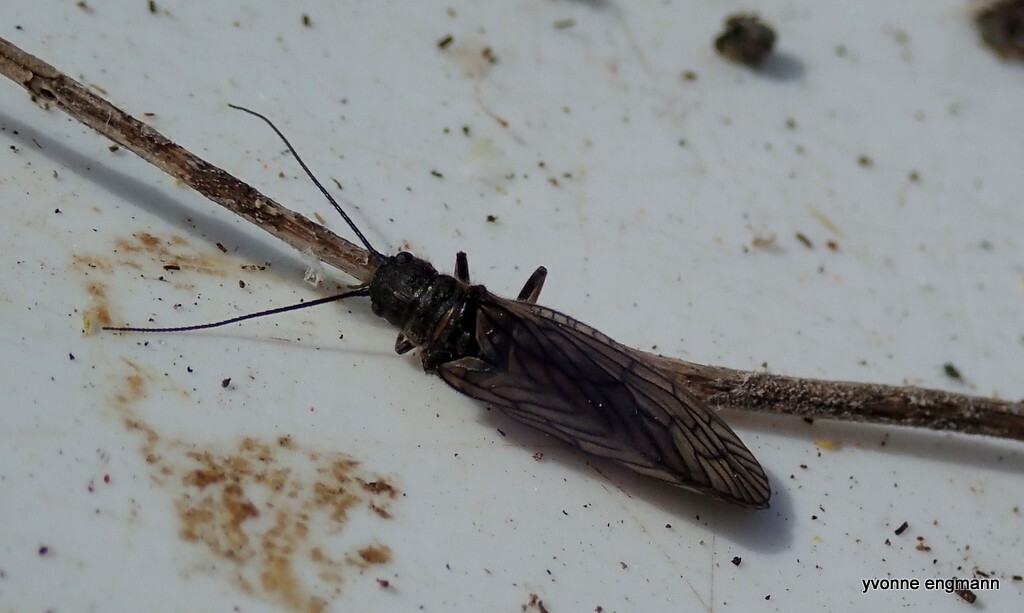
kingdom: Animalia
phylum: Arthropoda
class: Insecta
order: Megaloptera
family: Sialidae
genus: Sialis
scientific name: Sialis
